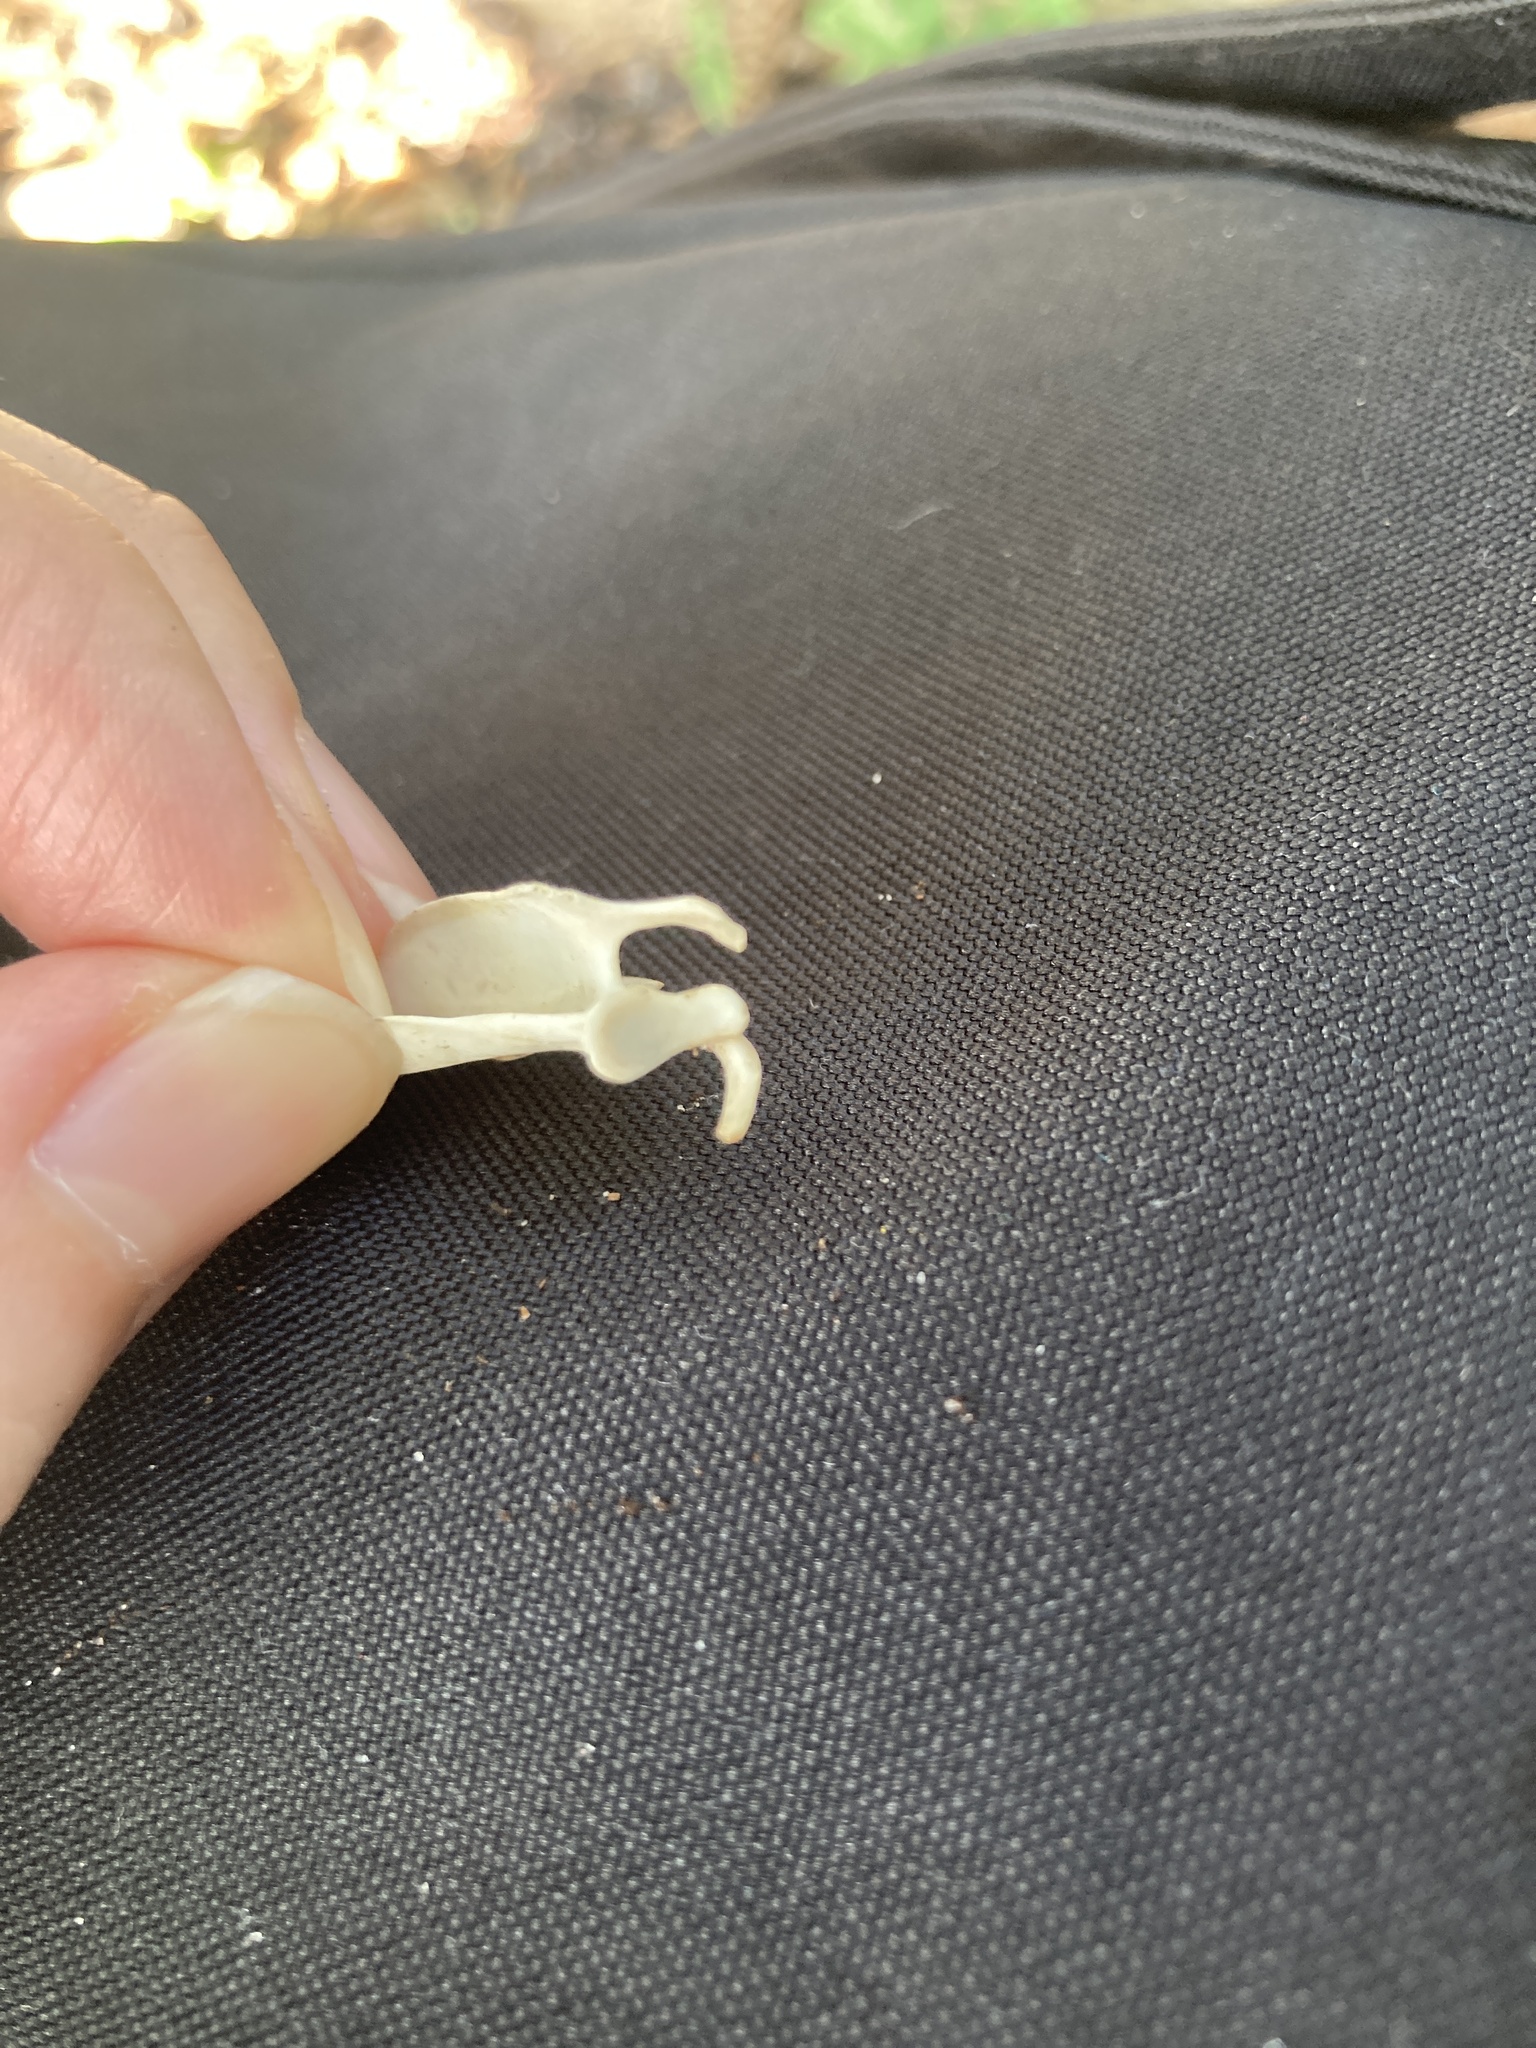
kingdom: Animalia
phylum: Chordata
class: Mammalia
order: Rodentia
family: Sciuridae
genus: Sciurus
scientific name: Sciurus carolinensis
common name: Eastern gray squirrel
